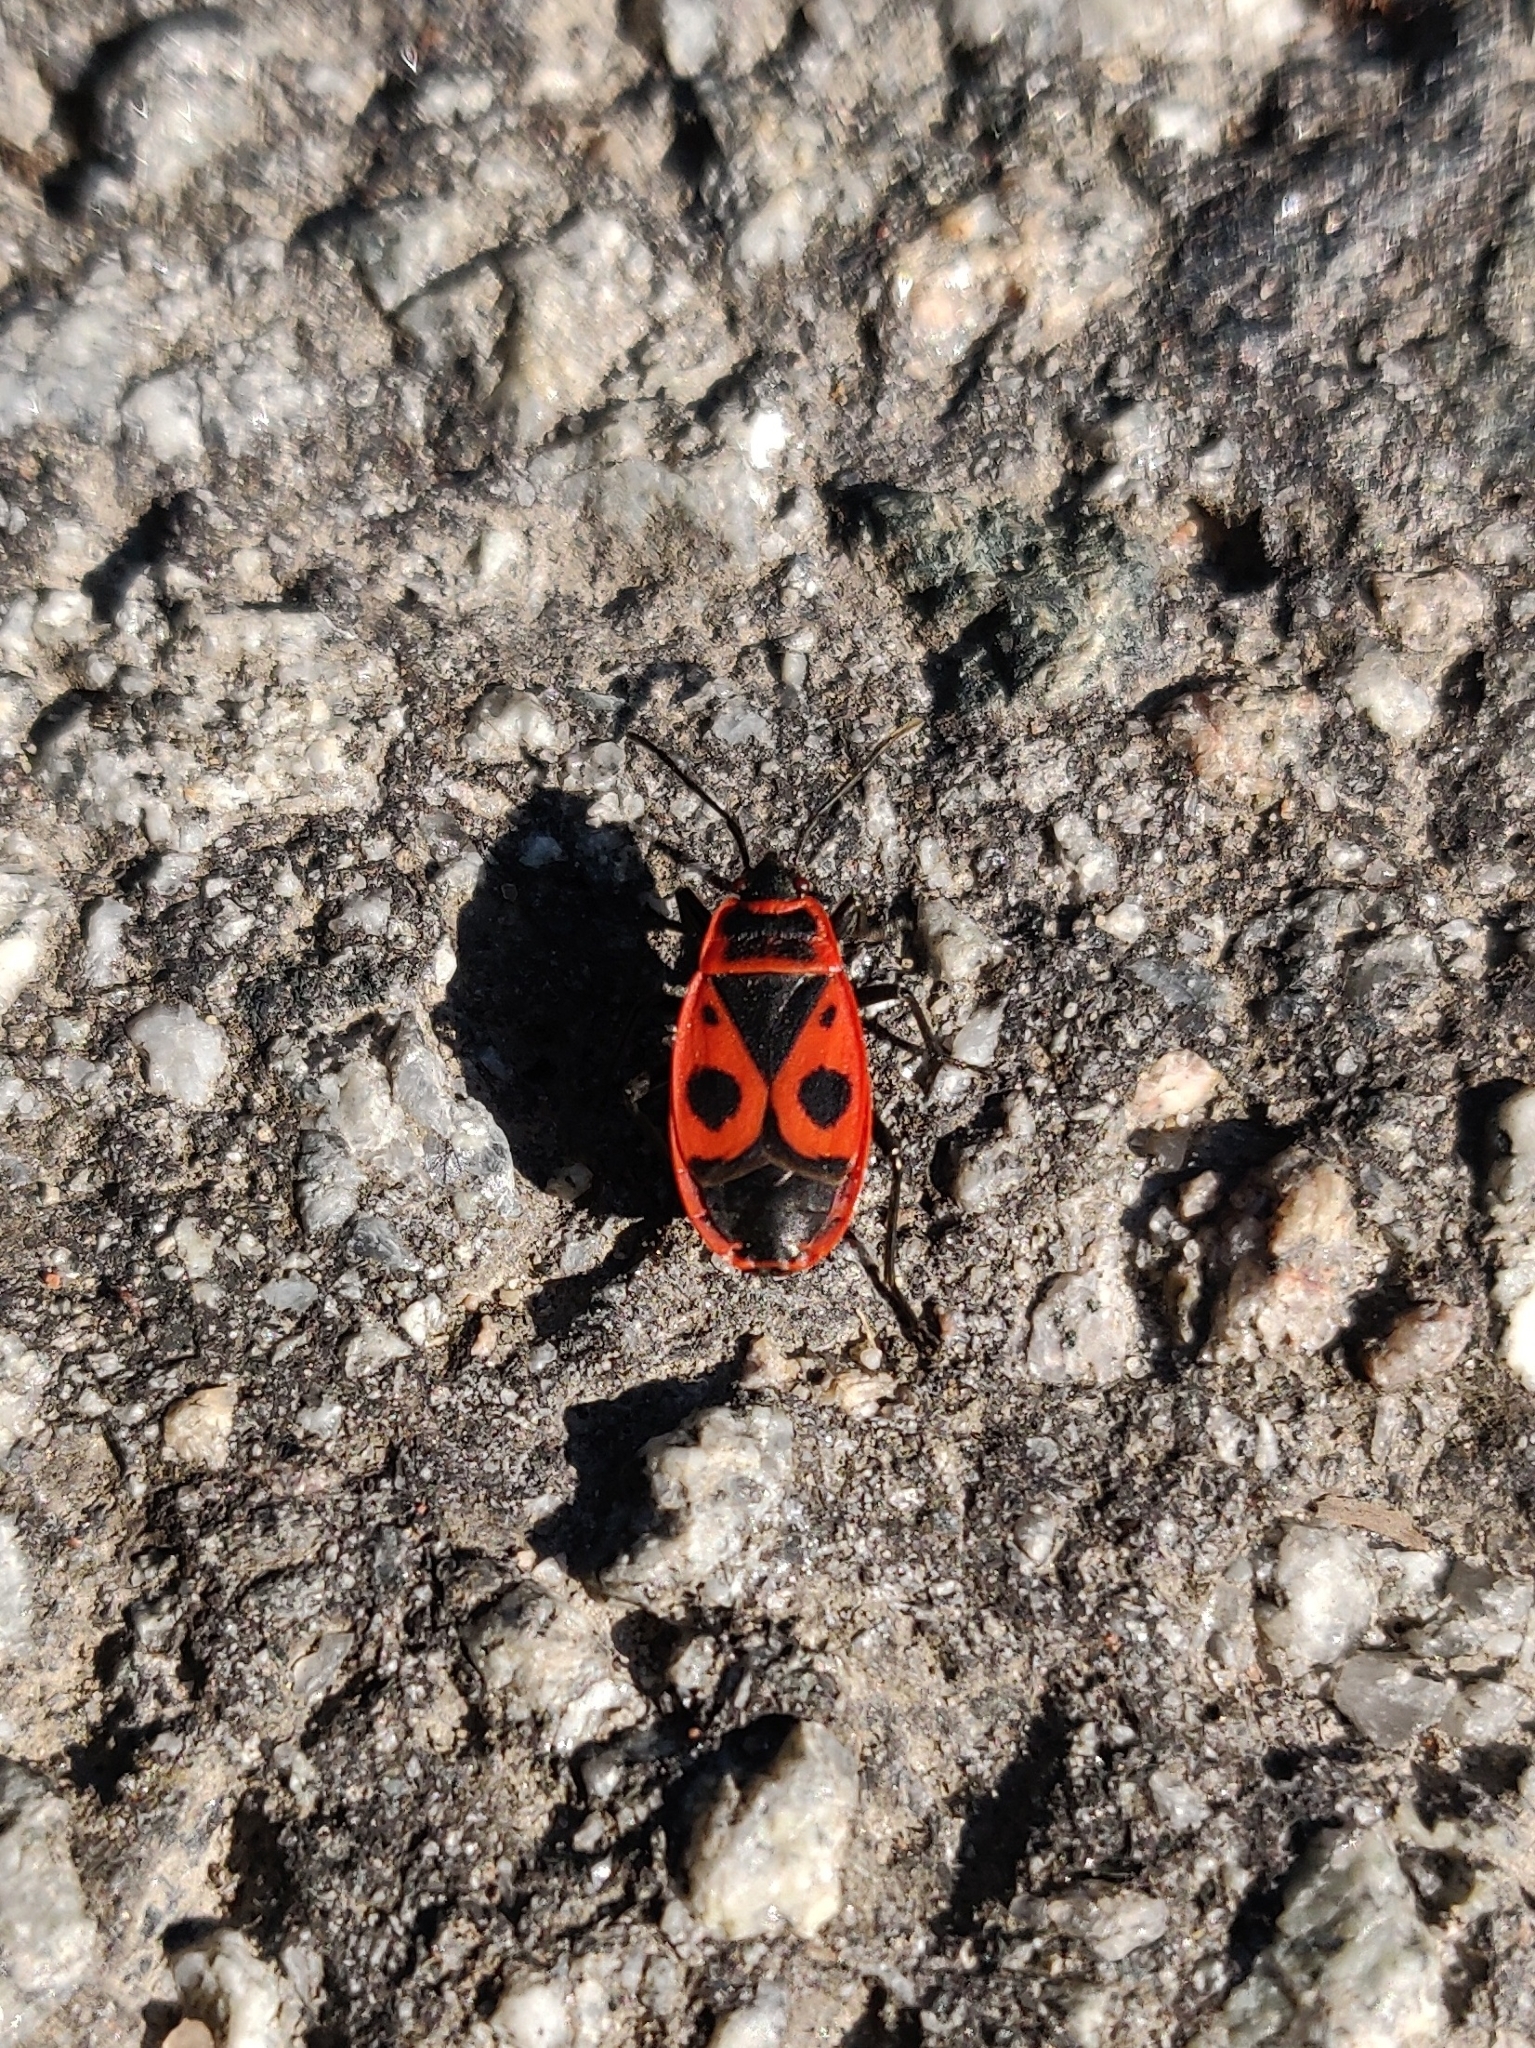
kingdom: Animalia
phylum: Arthropoda
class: Insecta
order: Hemiptera
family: Pyrrhocoridae
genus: Pyrrhocoris
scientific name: Pyrrhocoris apterus
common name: Firebug
